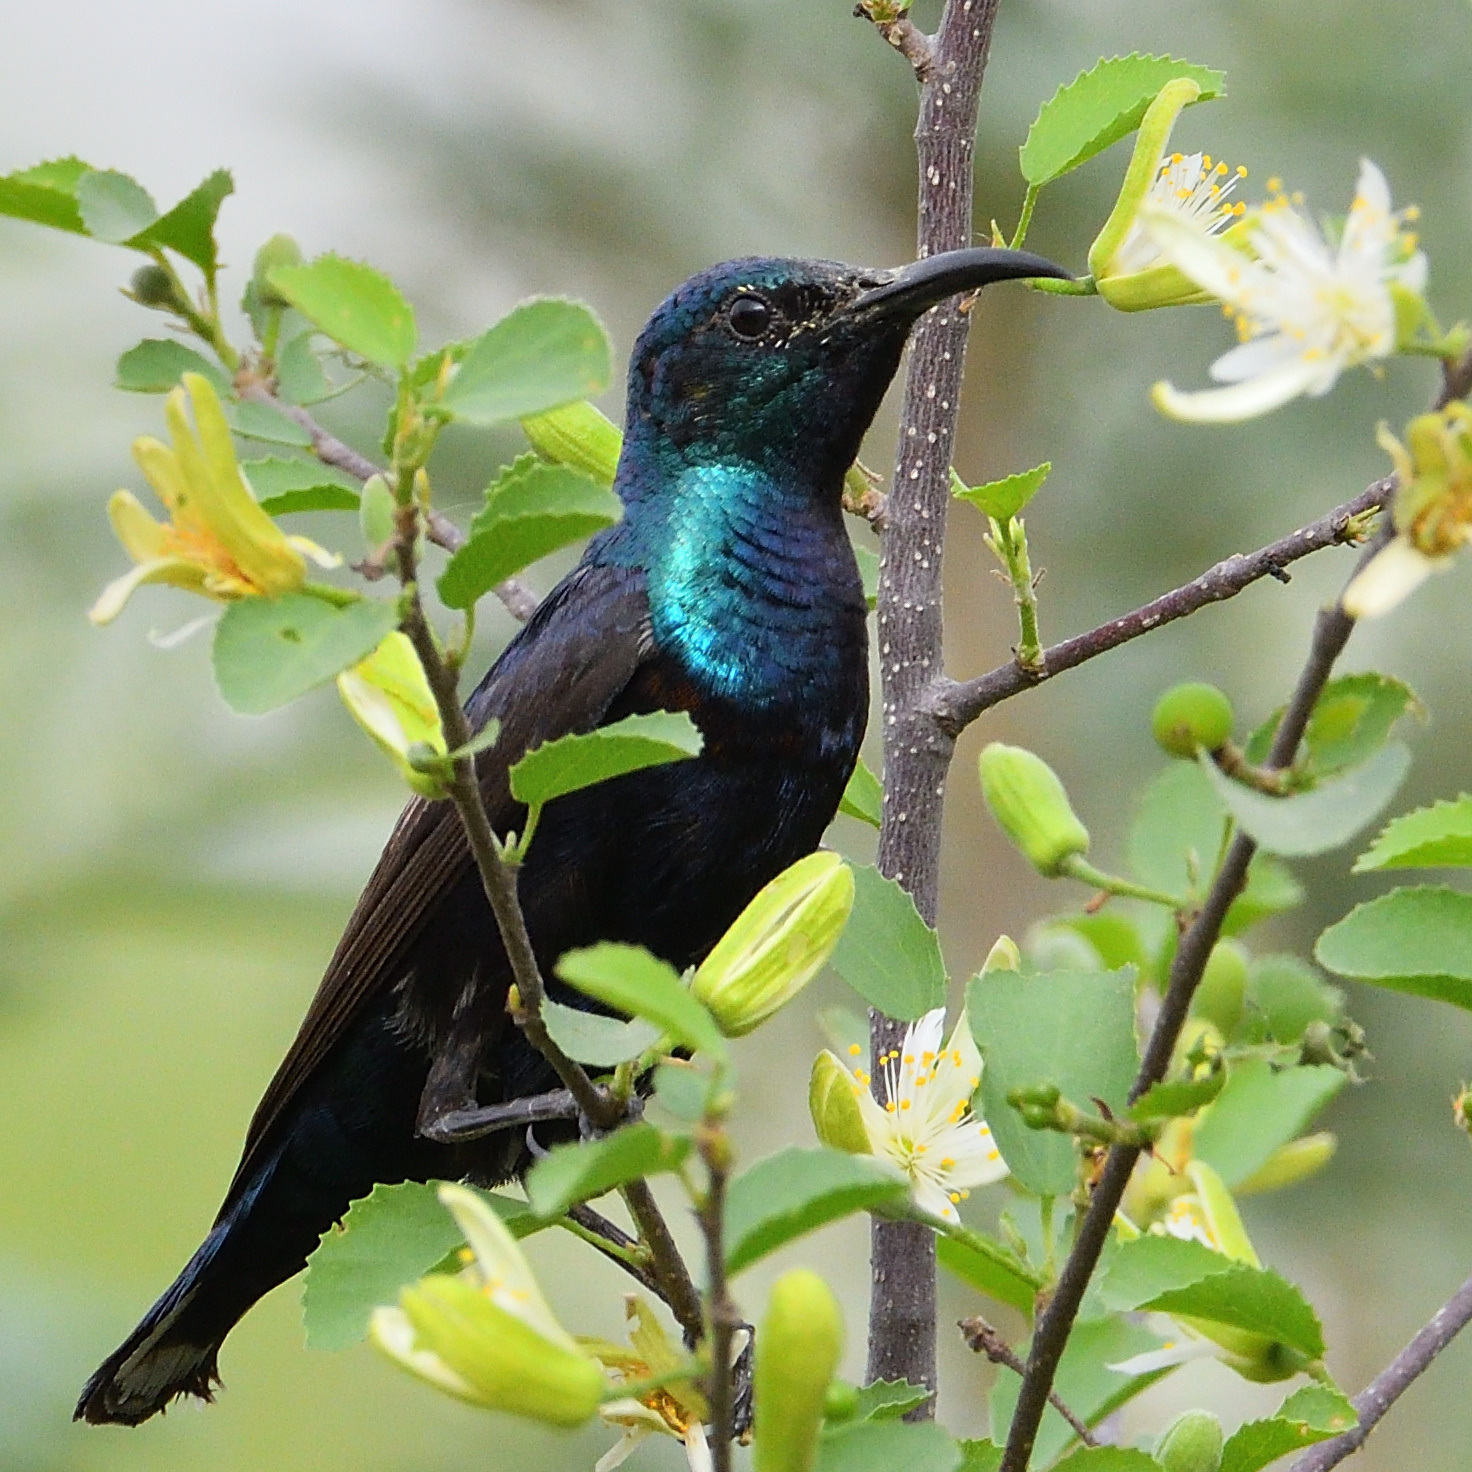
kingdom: Animalia
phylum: Chordata
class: Aves
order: Passeriformes
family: Nectariniidae
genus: Cinnyris
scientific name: Cinnyris asiaticus
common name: Purple sunbird
